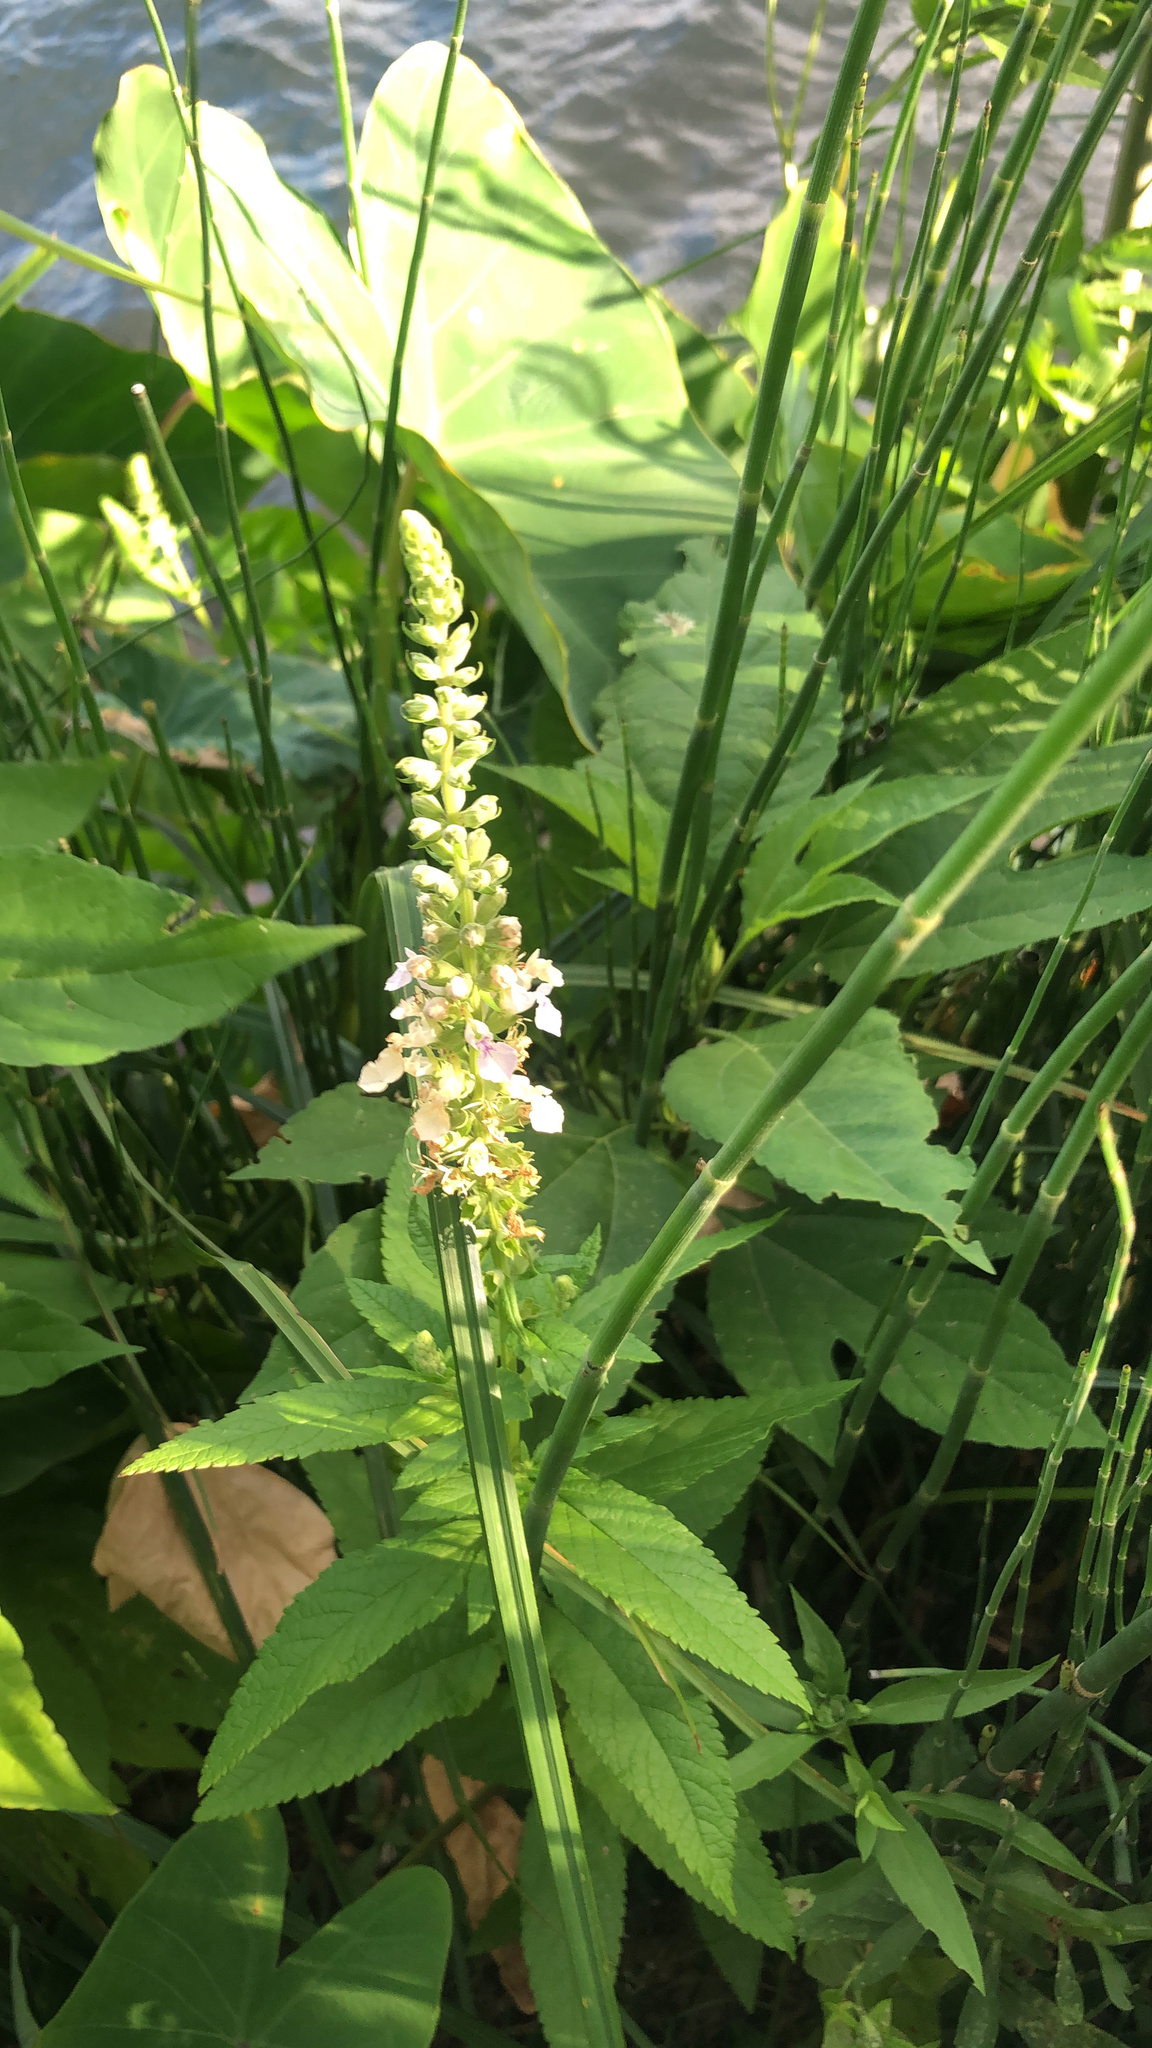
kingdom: Plantae
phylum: Tracheophyta
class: Magnoliopsida
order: Lamiales
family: Lamiaceae
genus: Teucrium
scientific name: Teucrium canadense
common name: American germander
